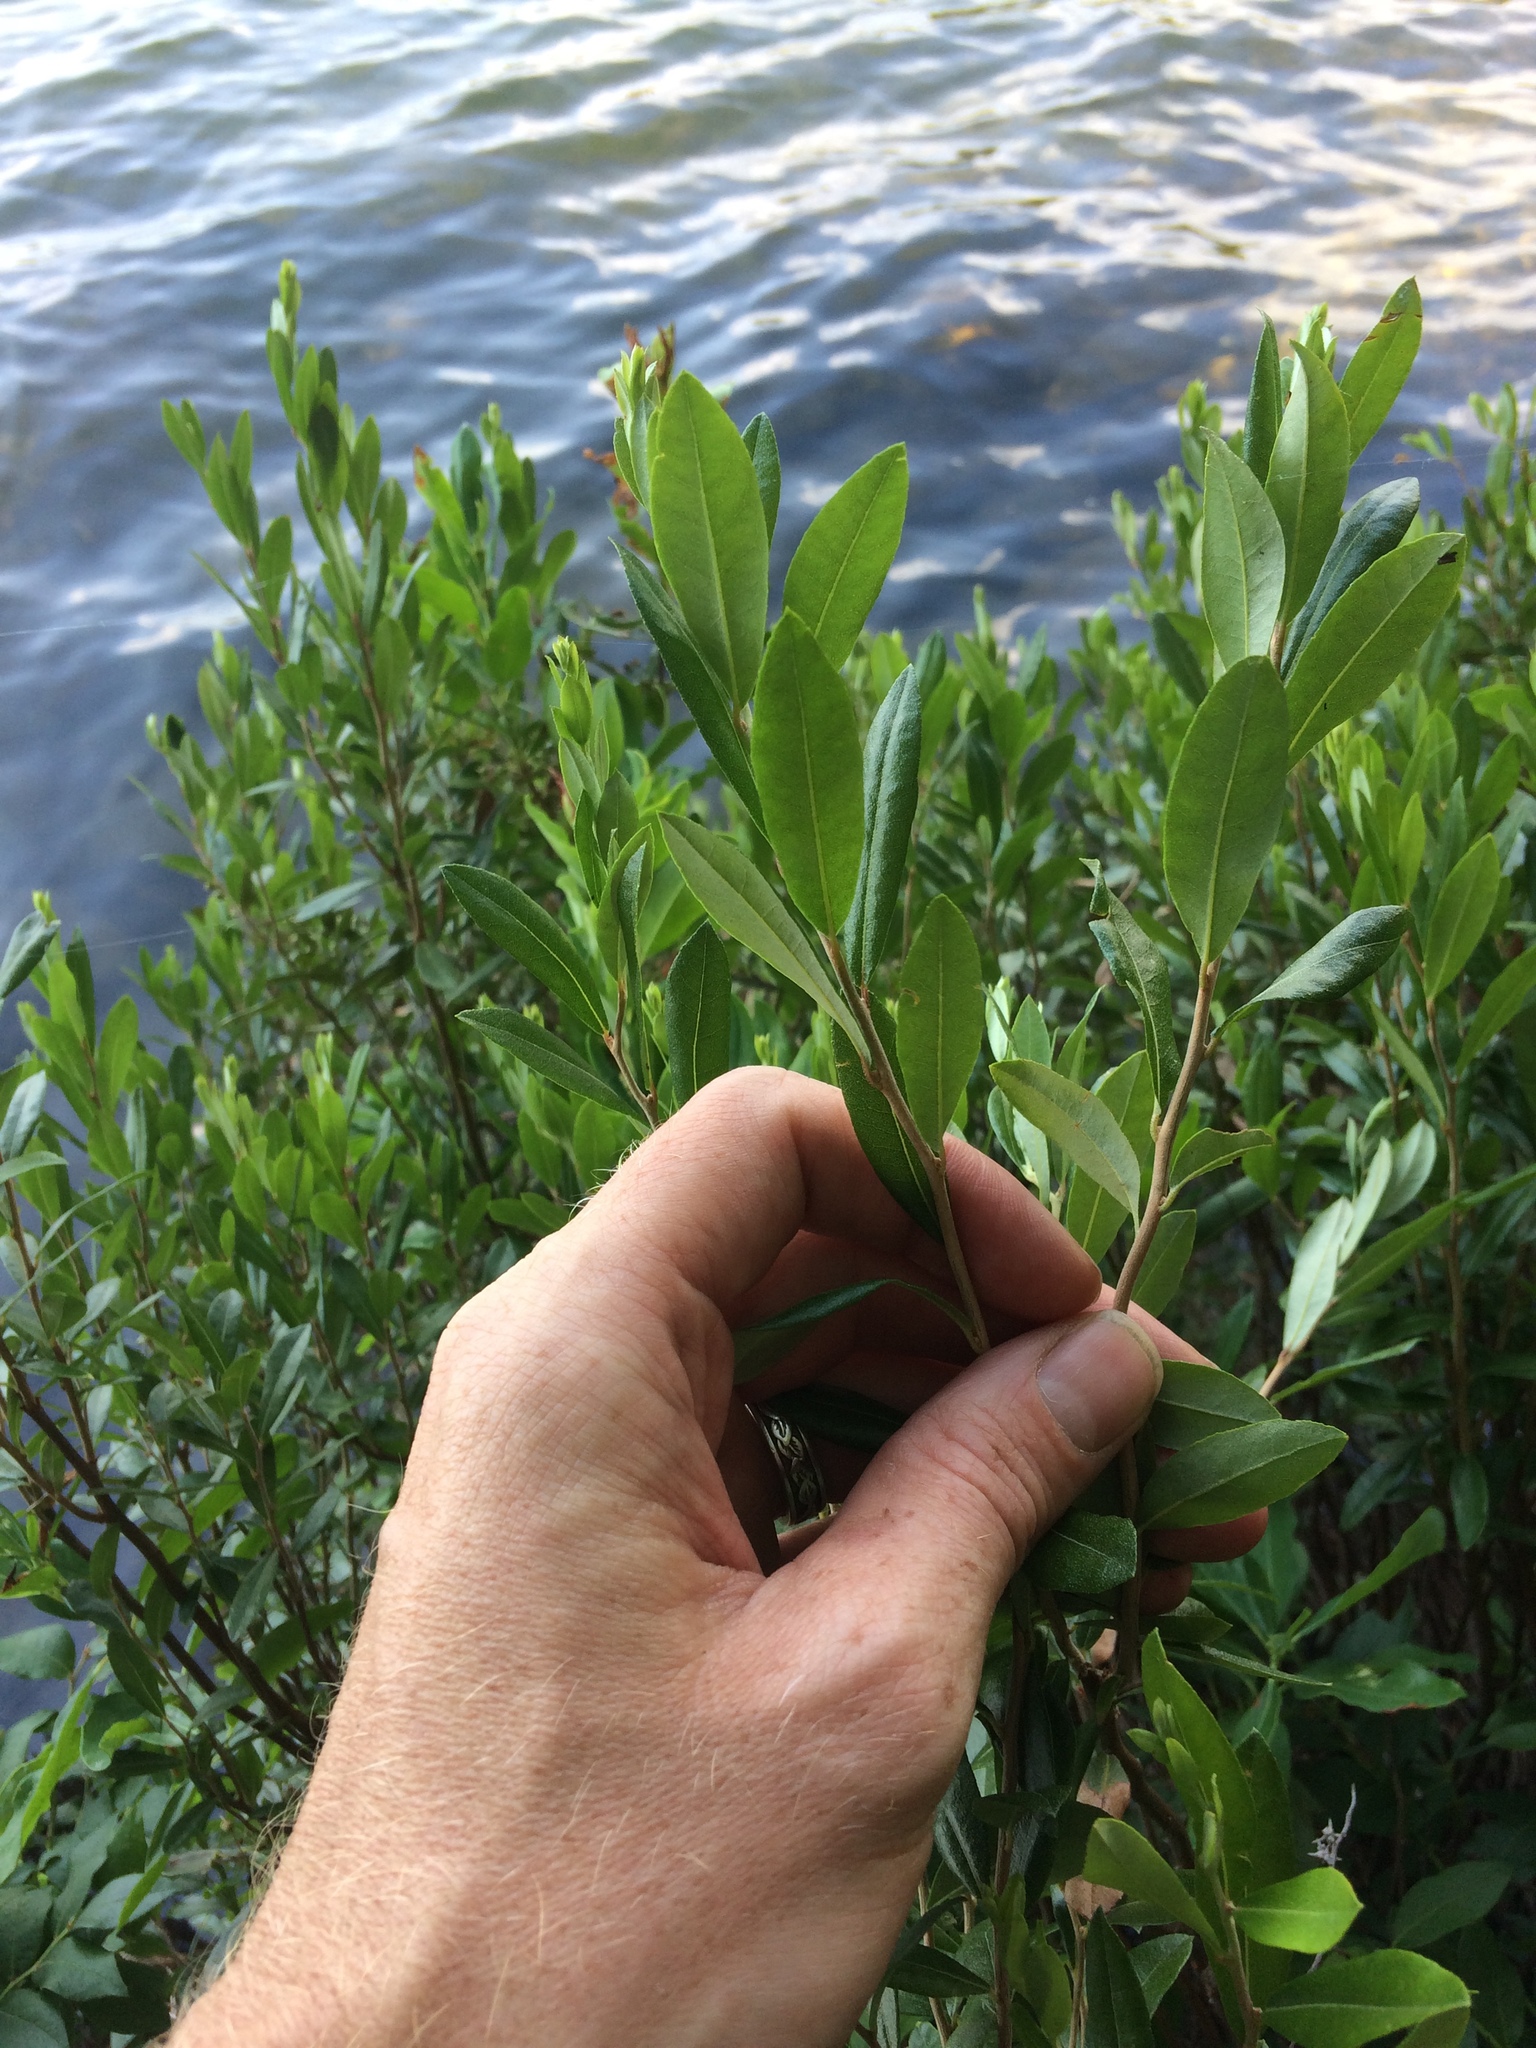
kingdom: Plantae
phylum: Tracheophyta
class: Magnoliopsida
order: Ericales
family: Ericaceae
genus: Chamaedaphne
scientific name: Chamaedaphne calyculata
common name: Leatherleaf
